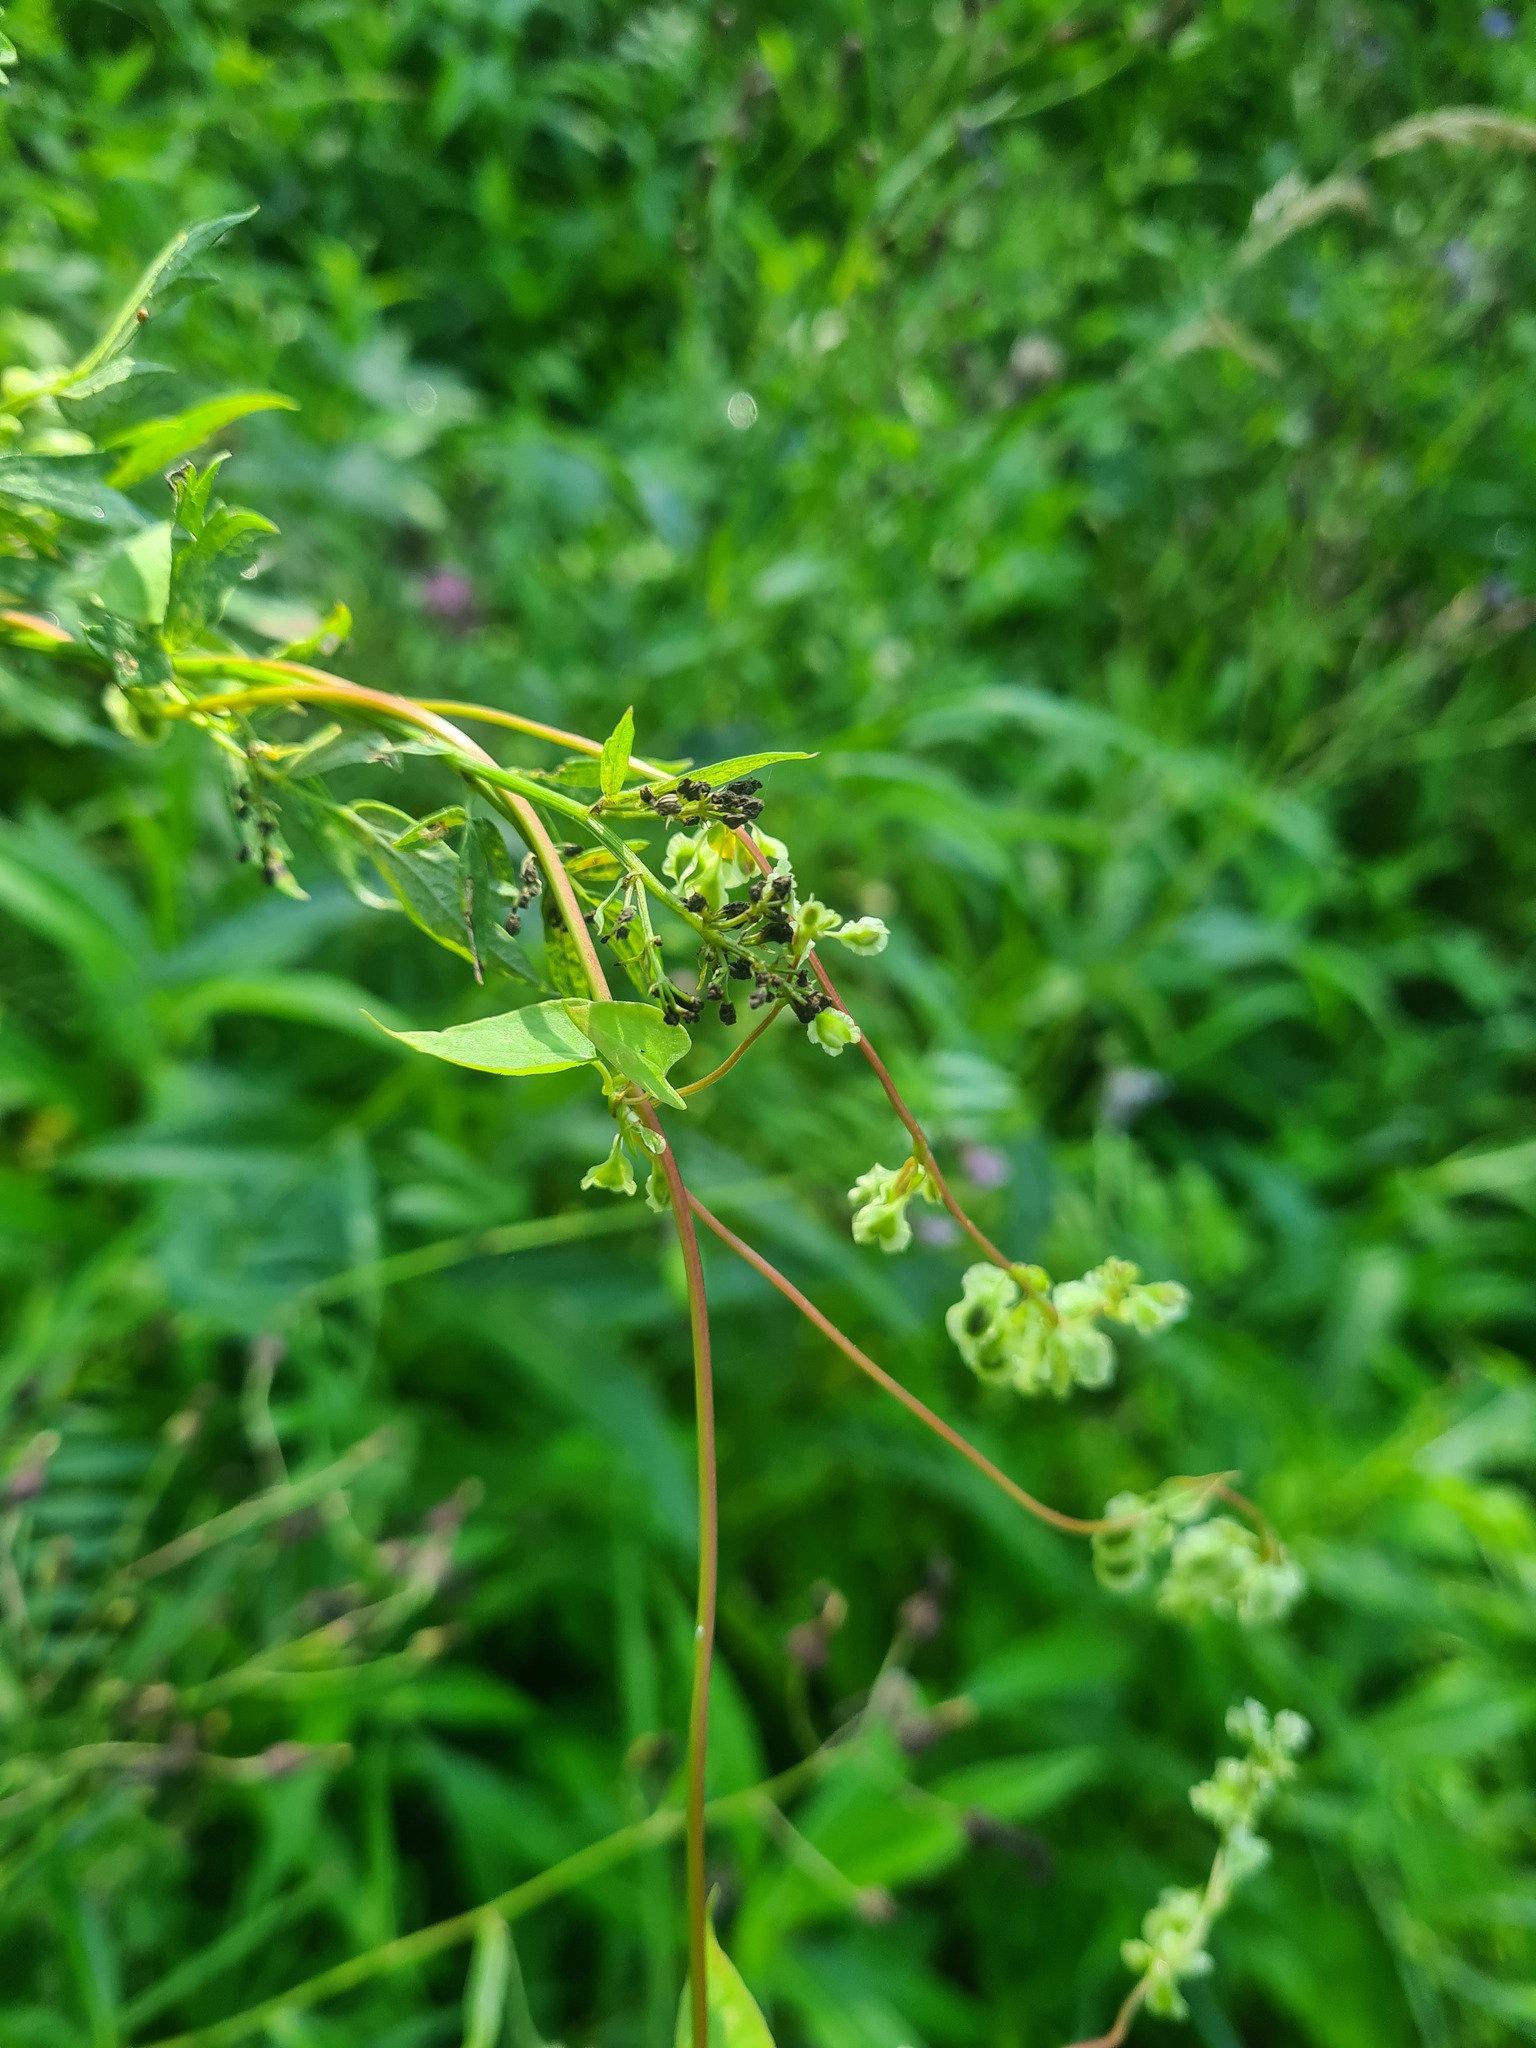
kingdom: Plantae
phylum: Tracheophyta
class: Magnoliopsida
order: Caryophyllales
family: Polygonaceae
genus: Fallopia
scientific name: Fallopia dumetorum
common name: Copse-bindweed
